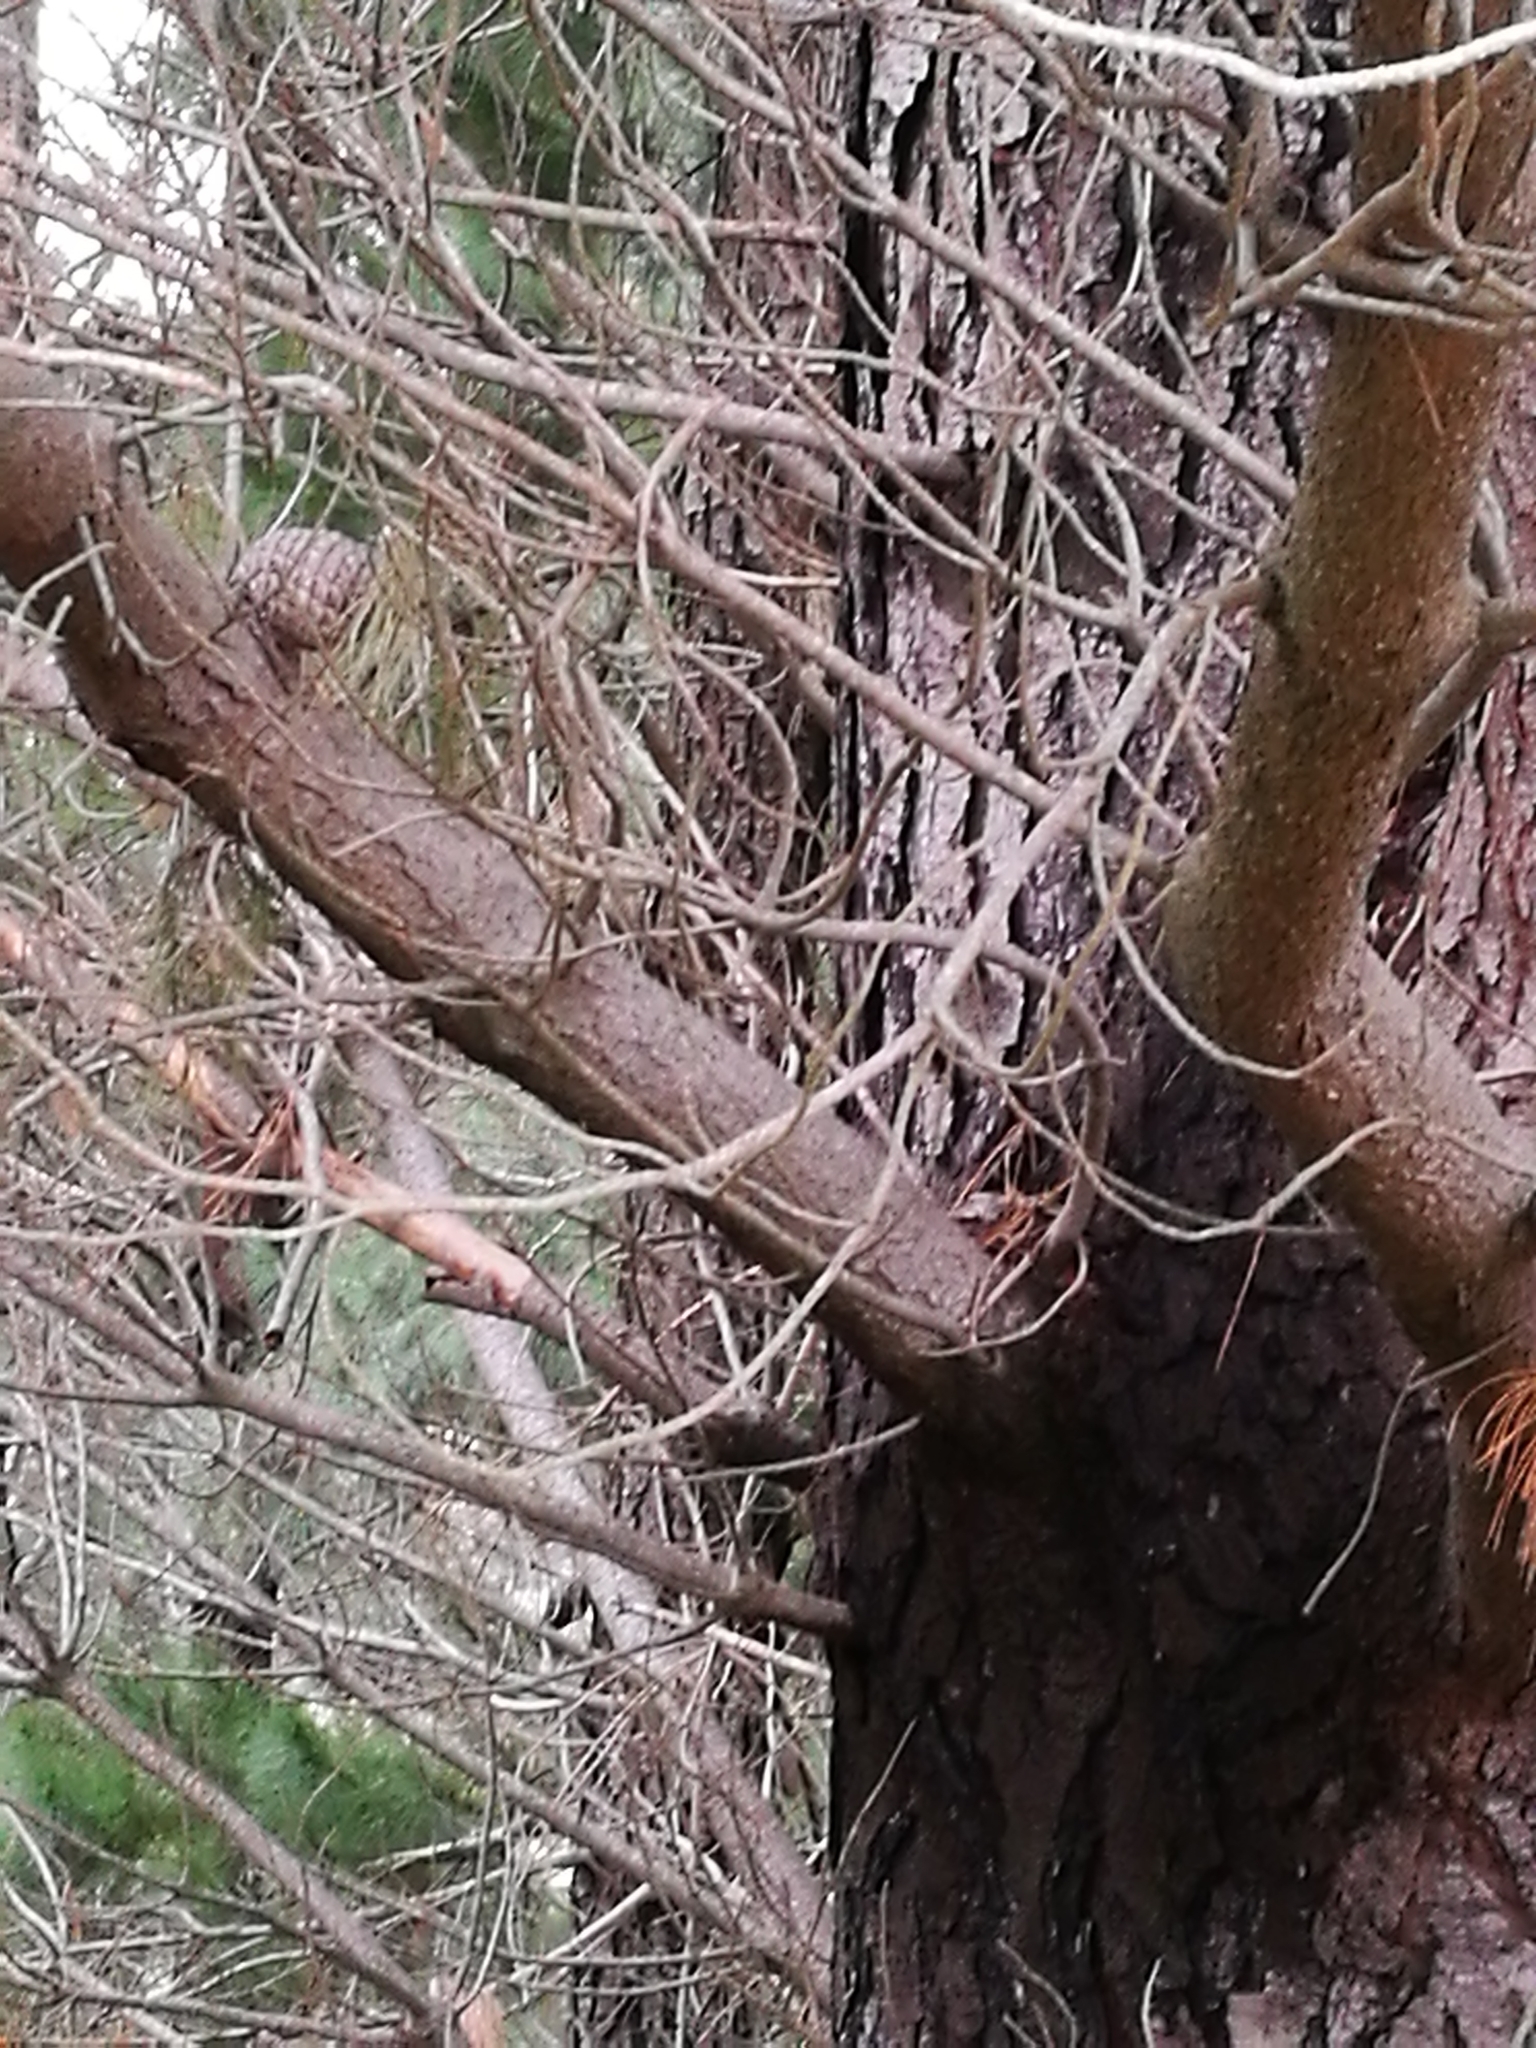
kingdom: Plantae
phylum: Tracheophyta
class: Pinopsida
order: Pinales
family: Pinaceae
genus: Pinus
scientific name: Pinus radiata
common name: Monterey pine
